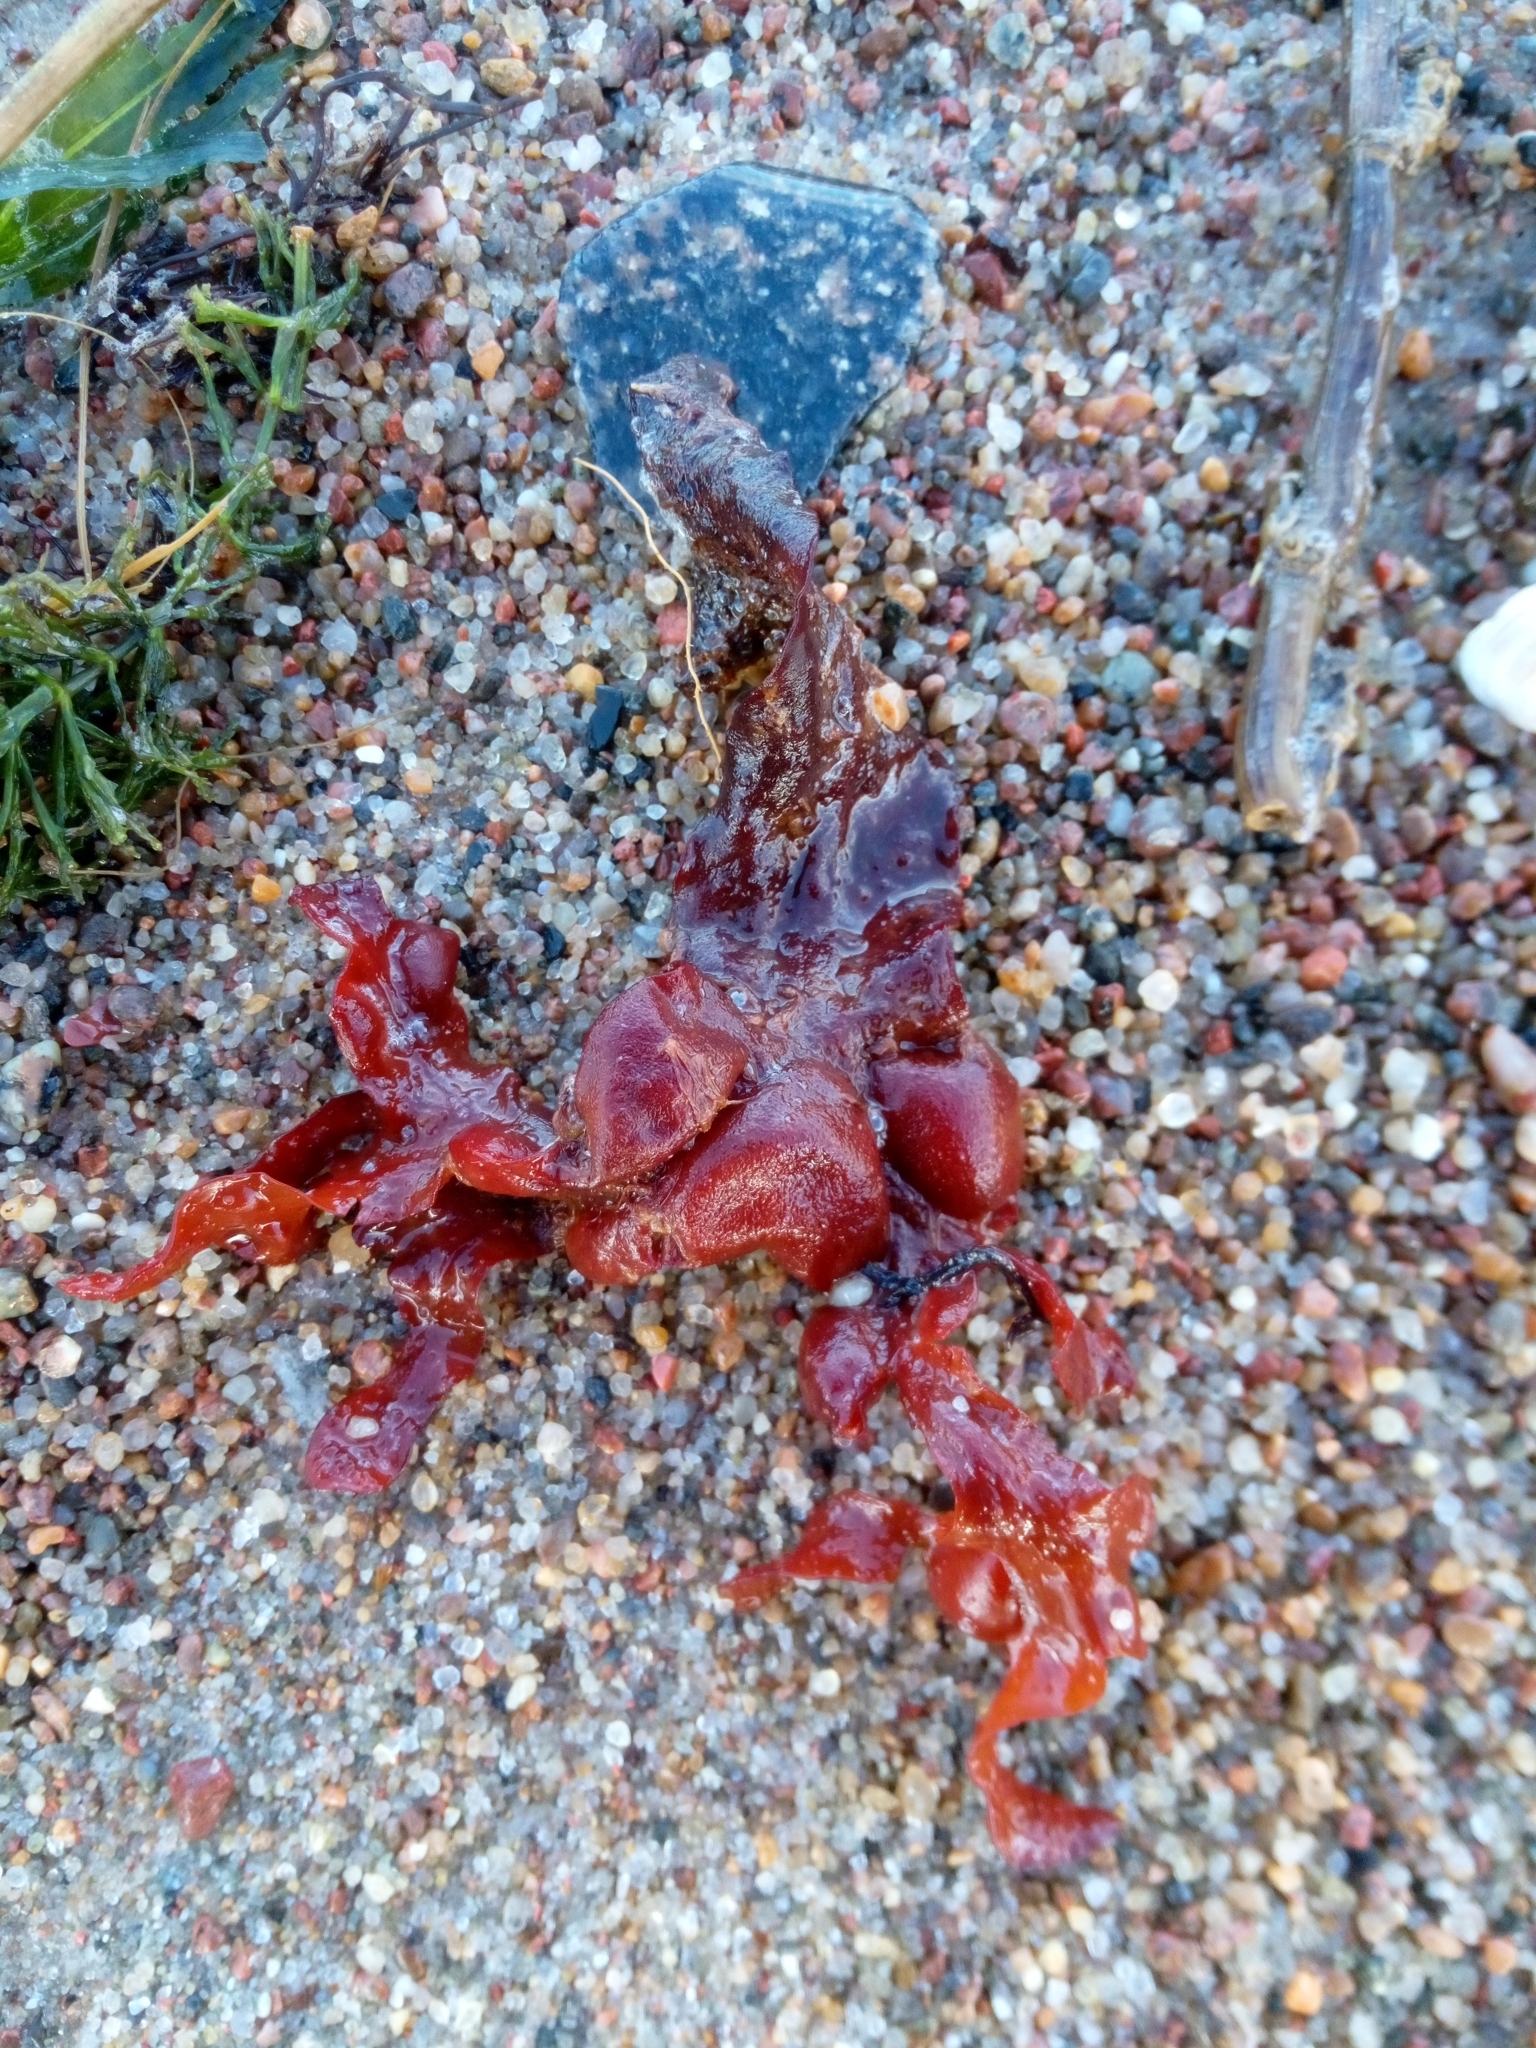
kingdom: Chromista
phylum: Ochrophyta
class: Phaeophyceae
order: Fucales
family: Fucaceae
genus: Fucus
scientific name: Fucus vesiculosus
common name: Bladder wrack
